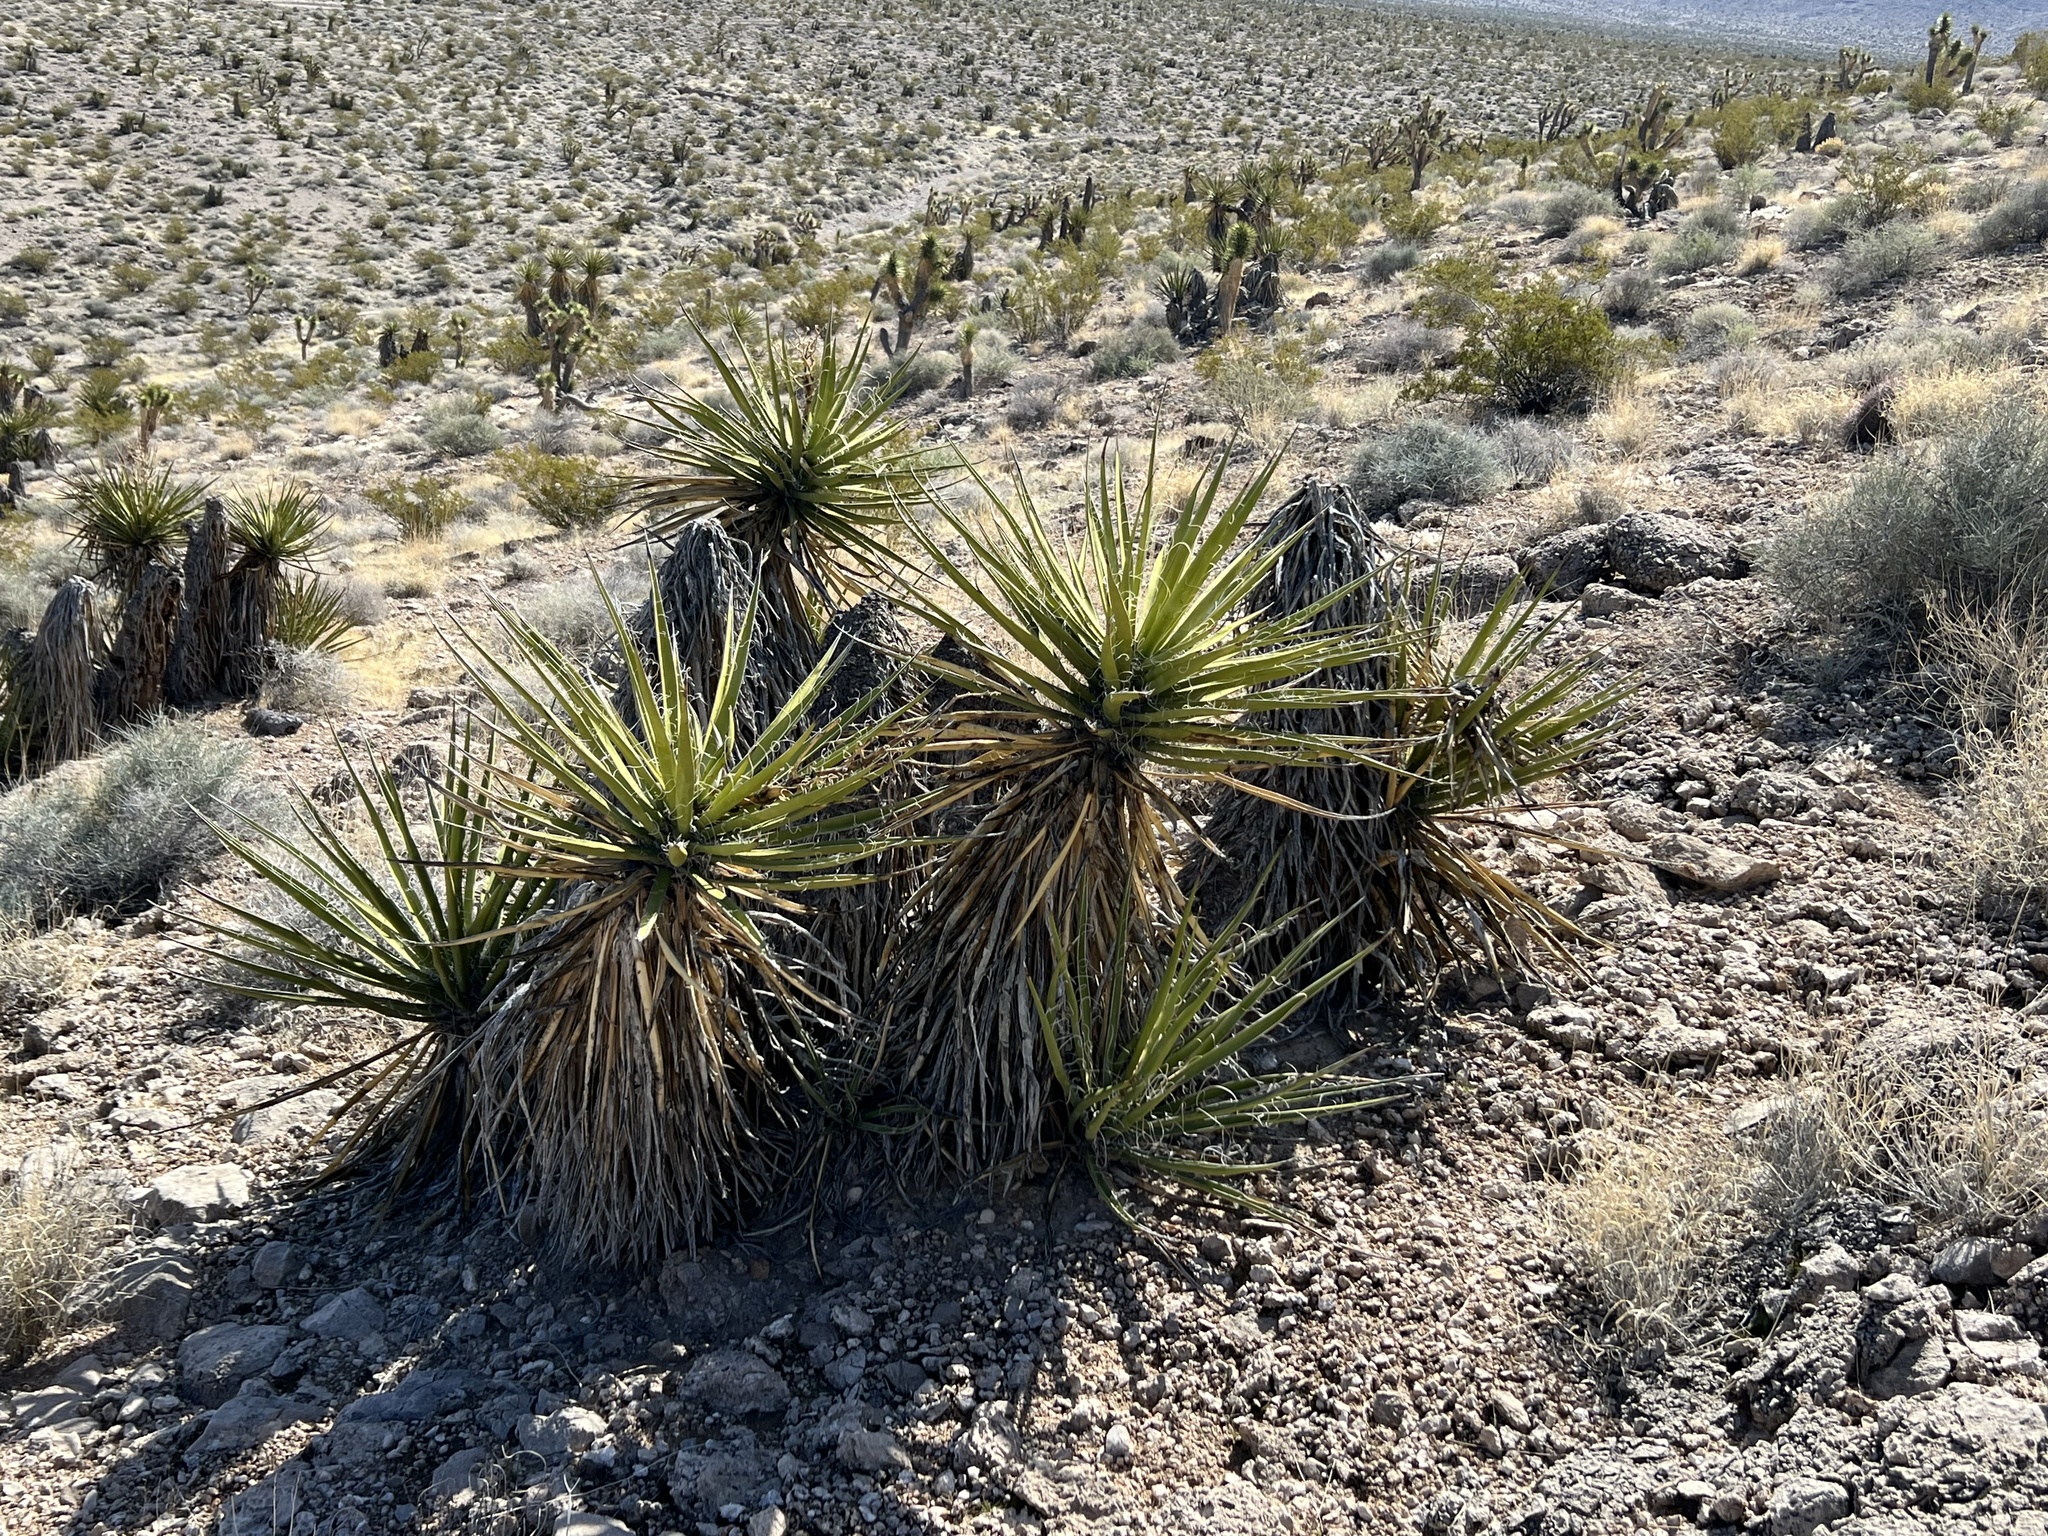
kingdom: Plantae
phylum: Tracheophyta
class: Liliopsida
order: Asparagales
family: Asparagaceae
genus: Yucca
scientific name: Yucca schidigera
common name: Mojave yucca
